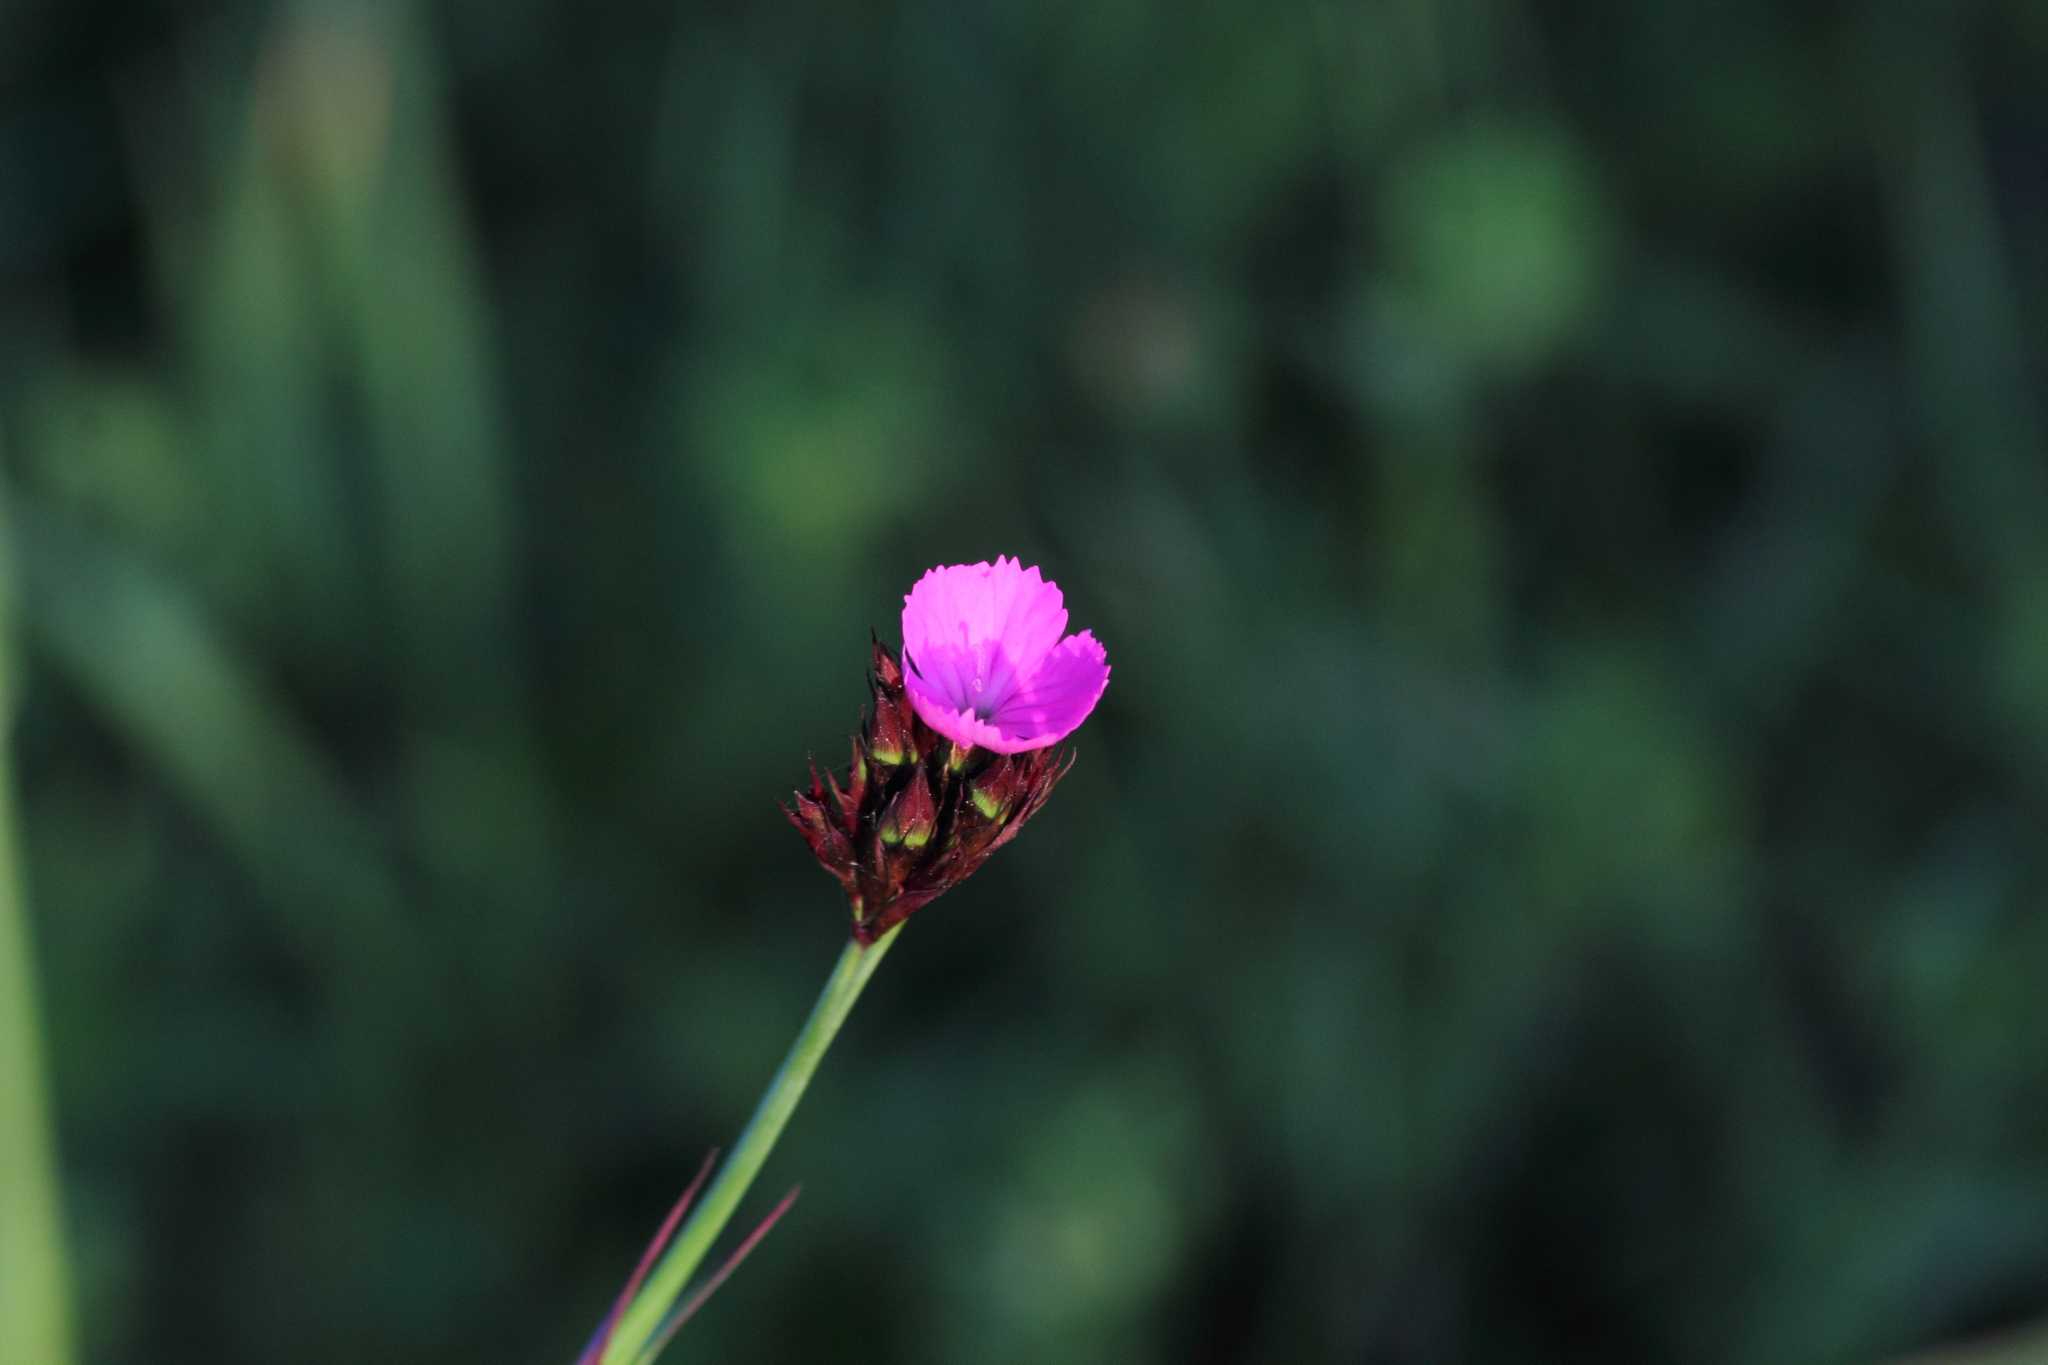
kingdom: Plantae
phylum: Tracheophyta
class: Magnoliopsida
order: Caryophyllales
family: Caryophyllaceae
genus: Dianthus
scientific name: Dianthus carthusianorum
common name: Carthusian pink
